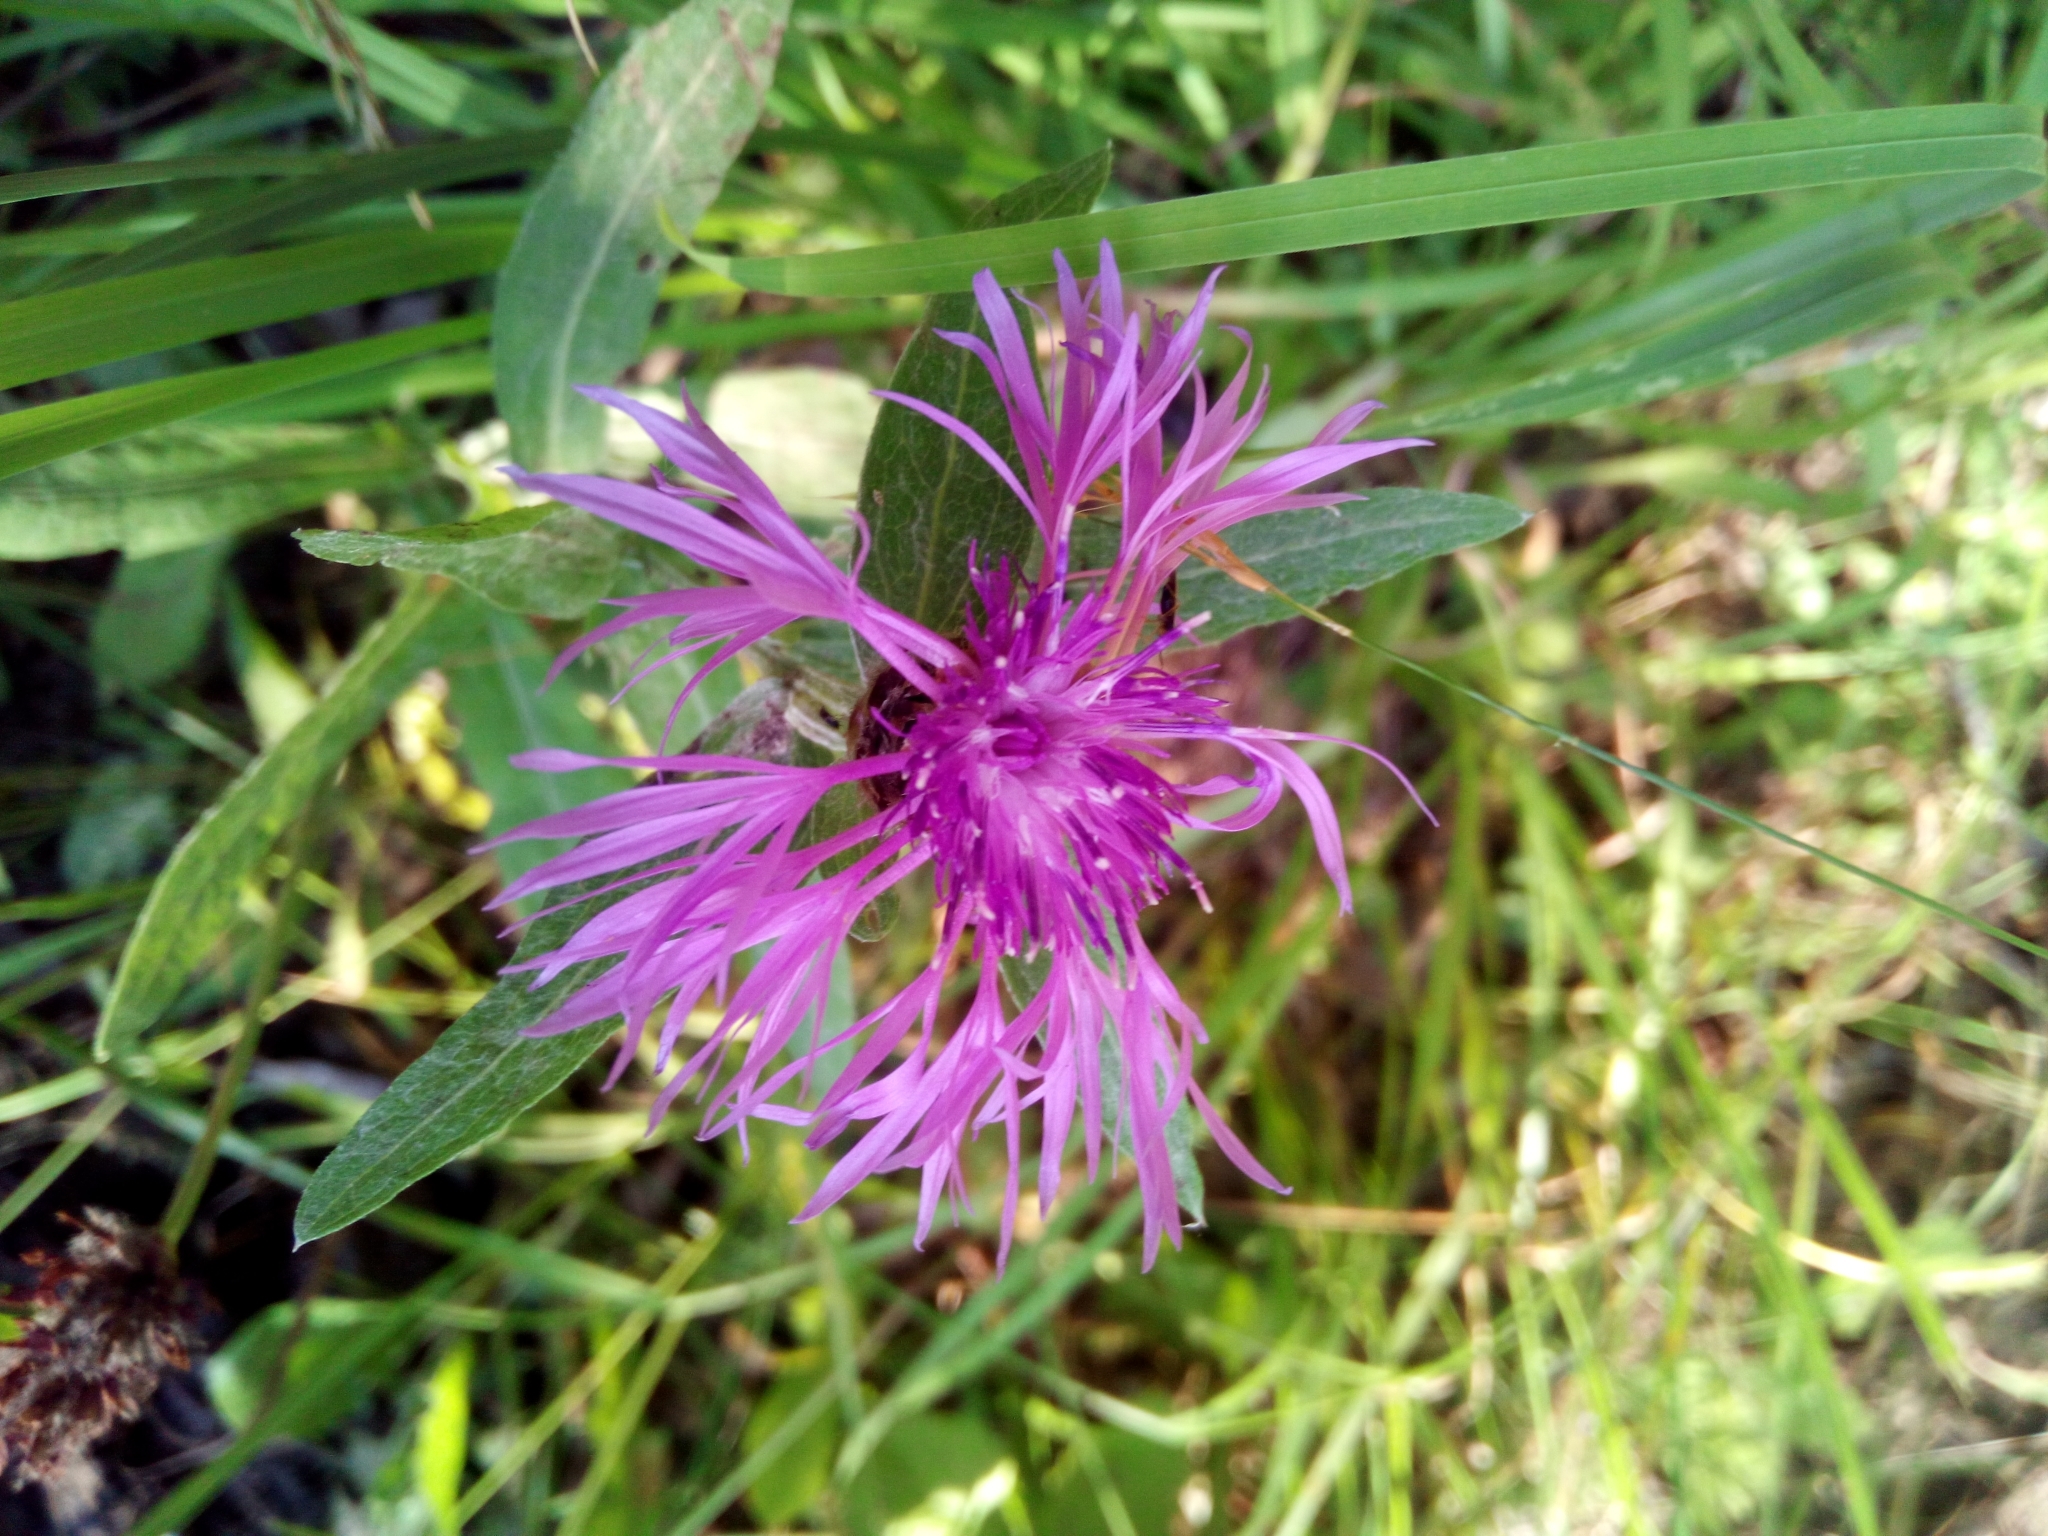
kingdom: Plantae
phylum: Tracheophyta
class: Magnoliopsida
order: Asterales
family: Asteraceae
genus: Centaurea
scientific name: Centaurea jacea
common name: Brown knapweed
